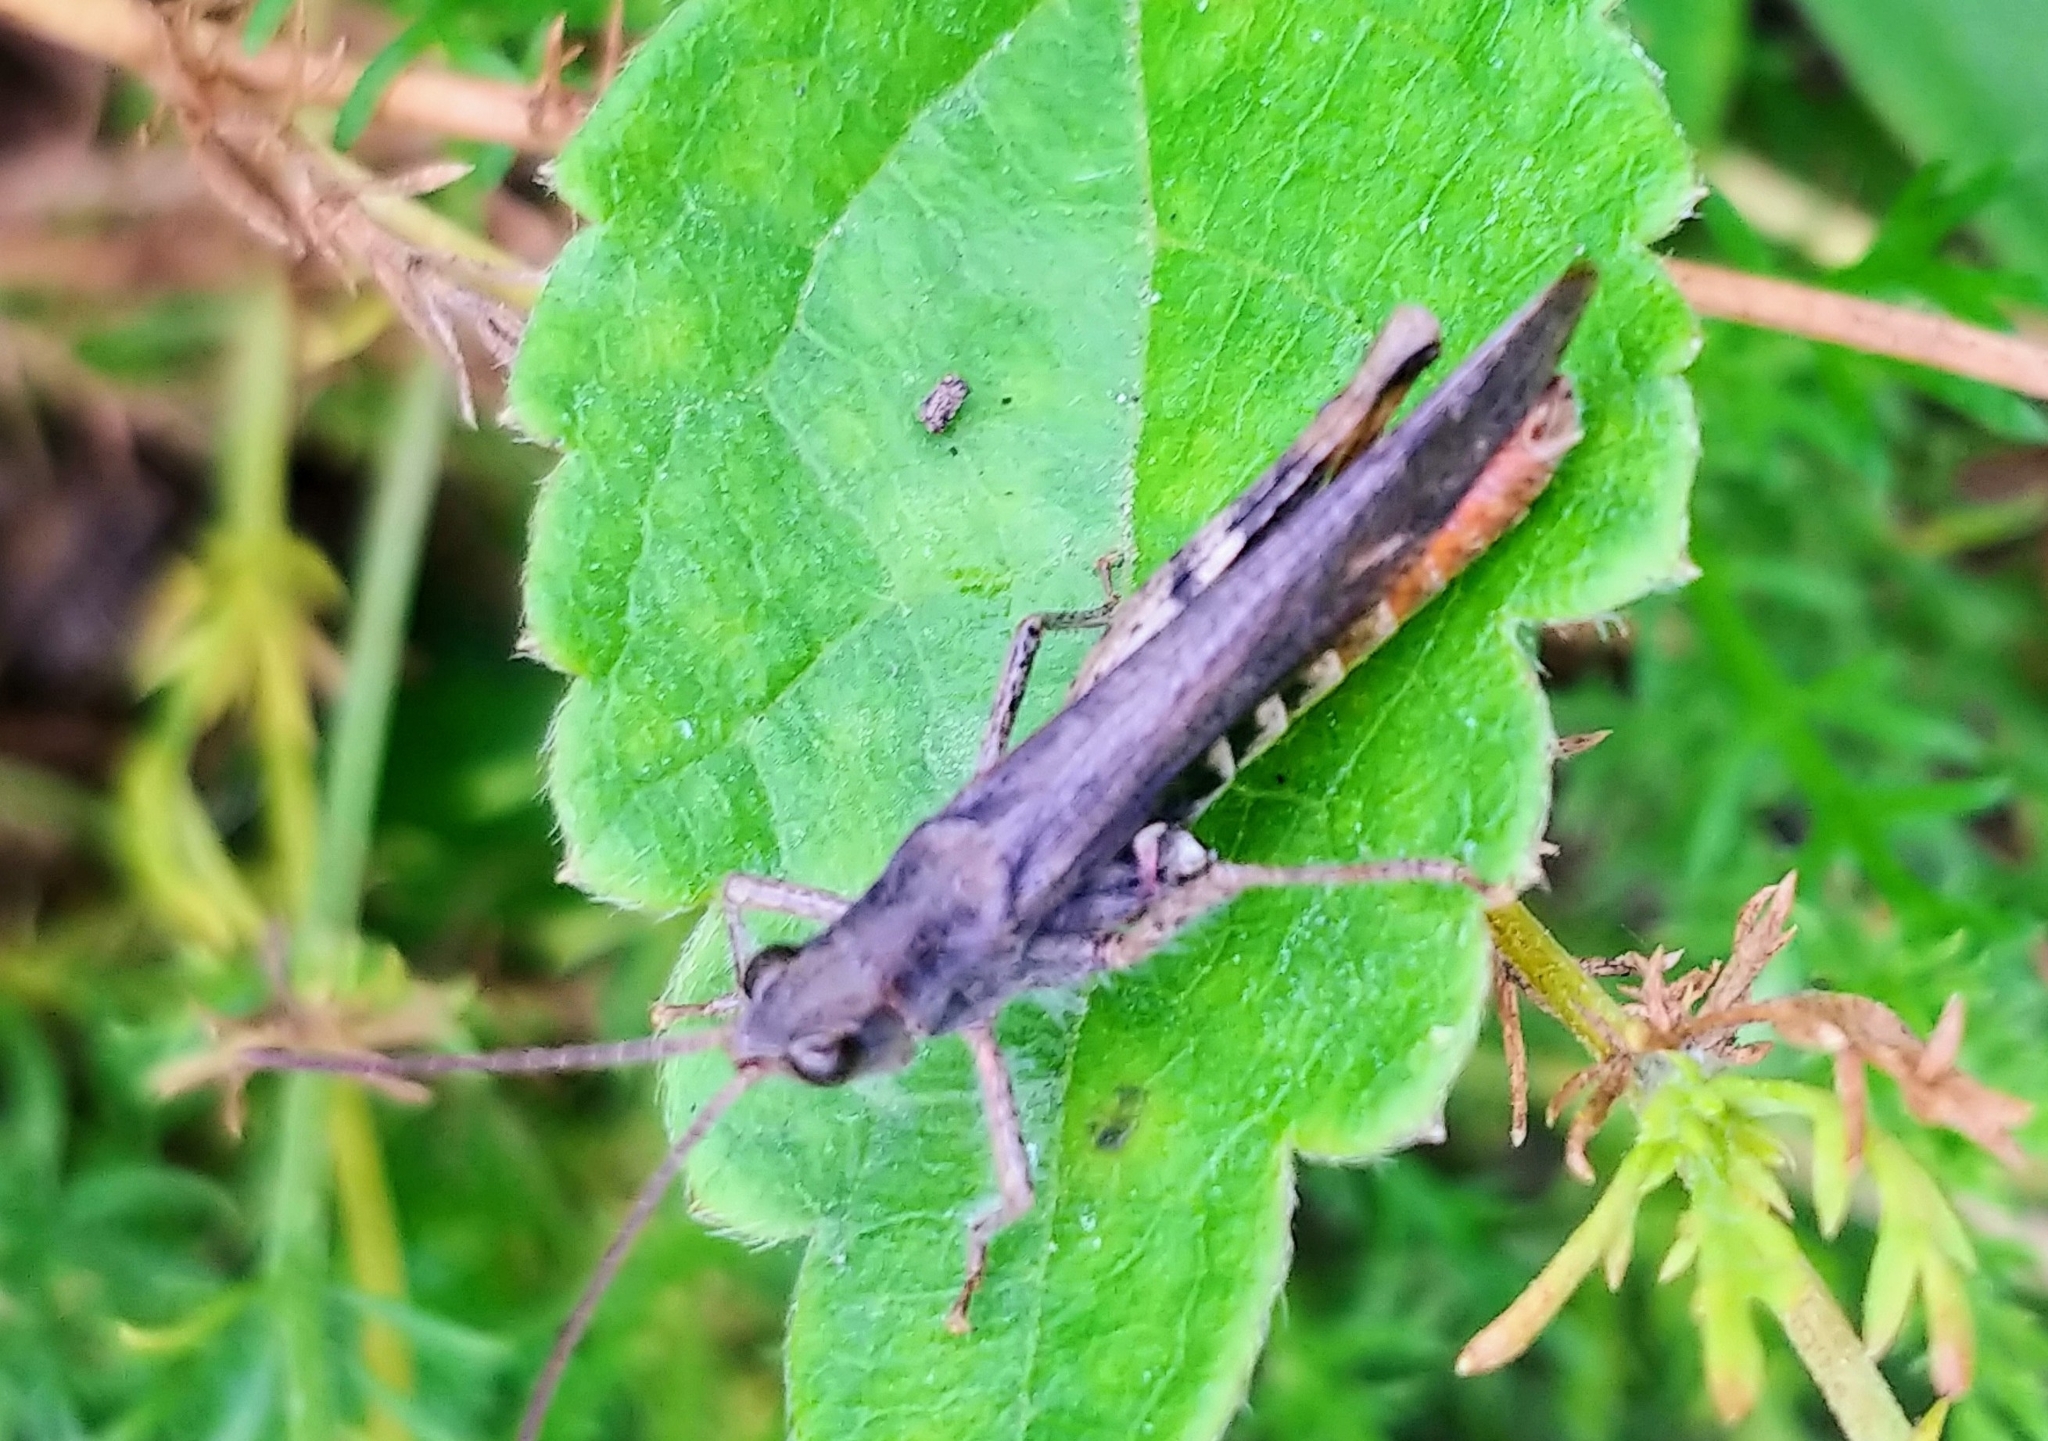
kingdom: Animalia
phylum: Arthropoda
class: Insecta
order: Orthoptera
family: Acrididae
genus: Chorthippus
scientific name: Chorthippus brunneus
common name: Field grasshopper
